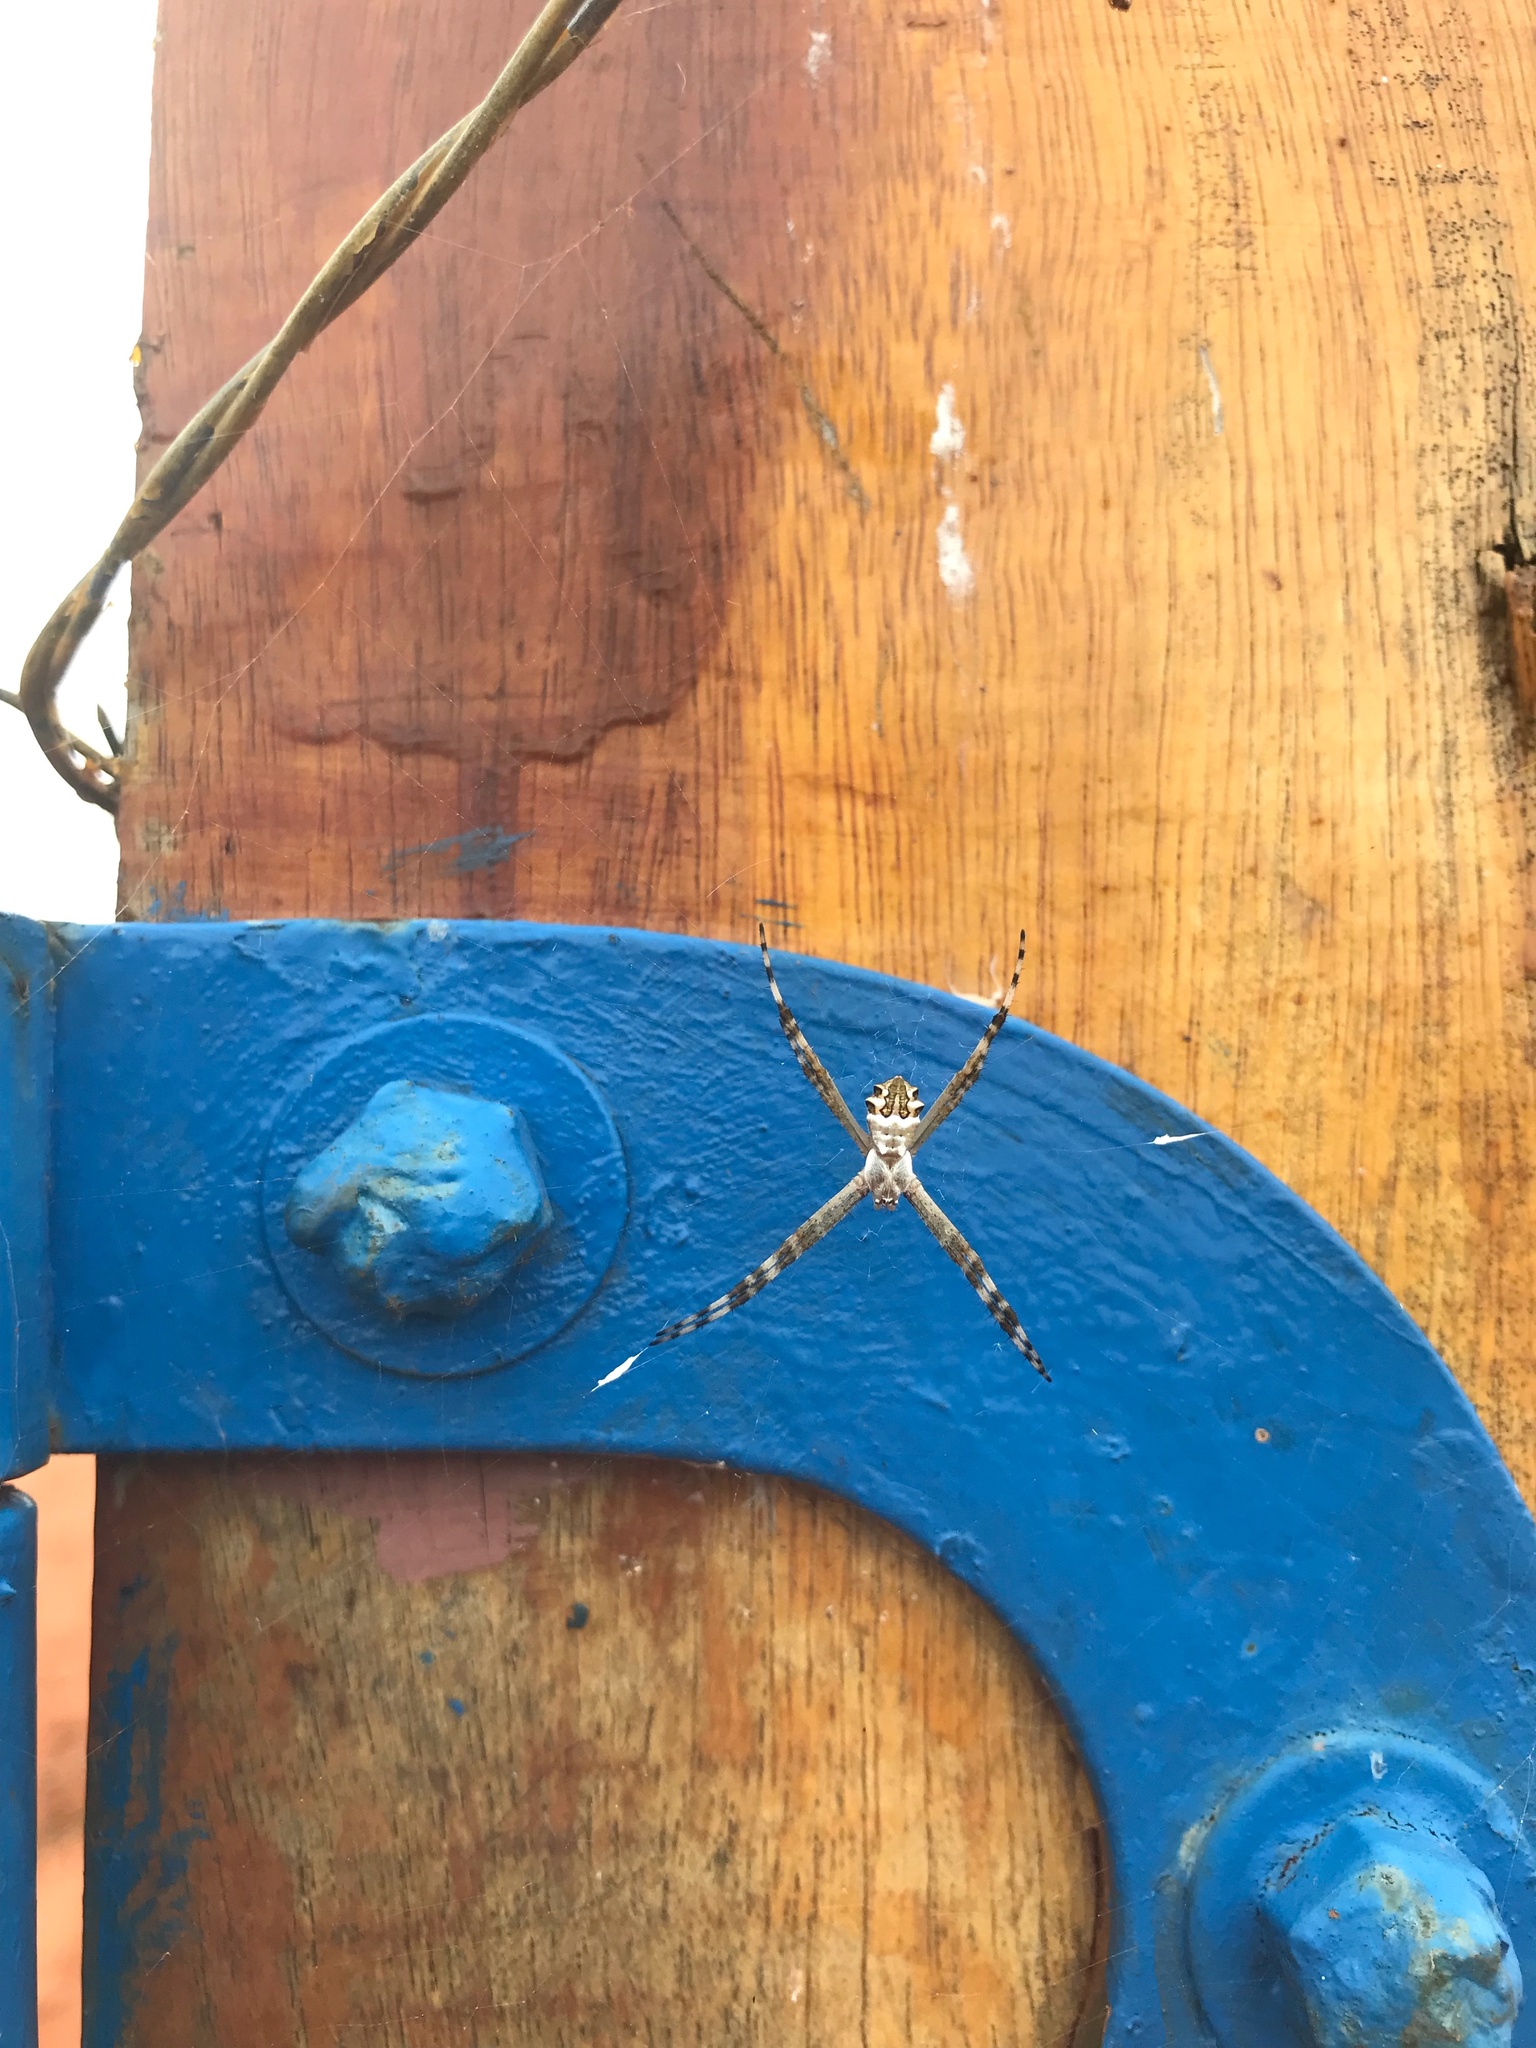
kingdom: Animalia
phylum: Arthropoda
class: Arachnida
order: Araneae
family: Araneidae
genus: Argiope
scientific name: Argiope argentata
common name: Orb weavers
